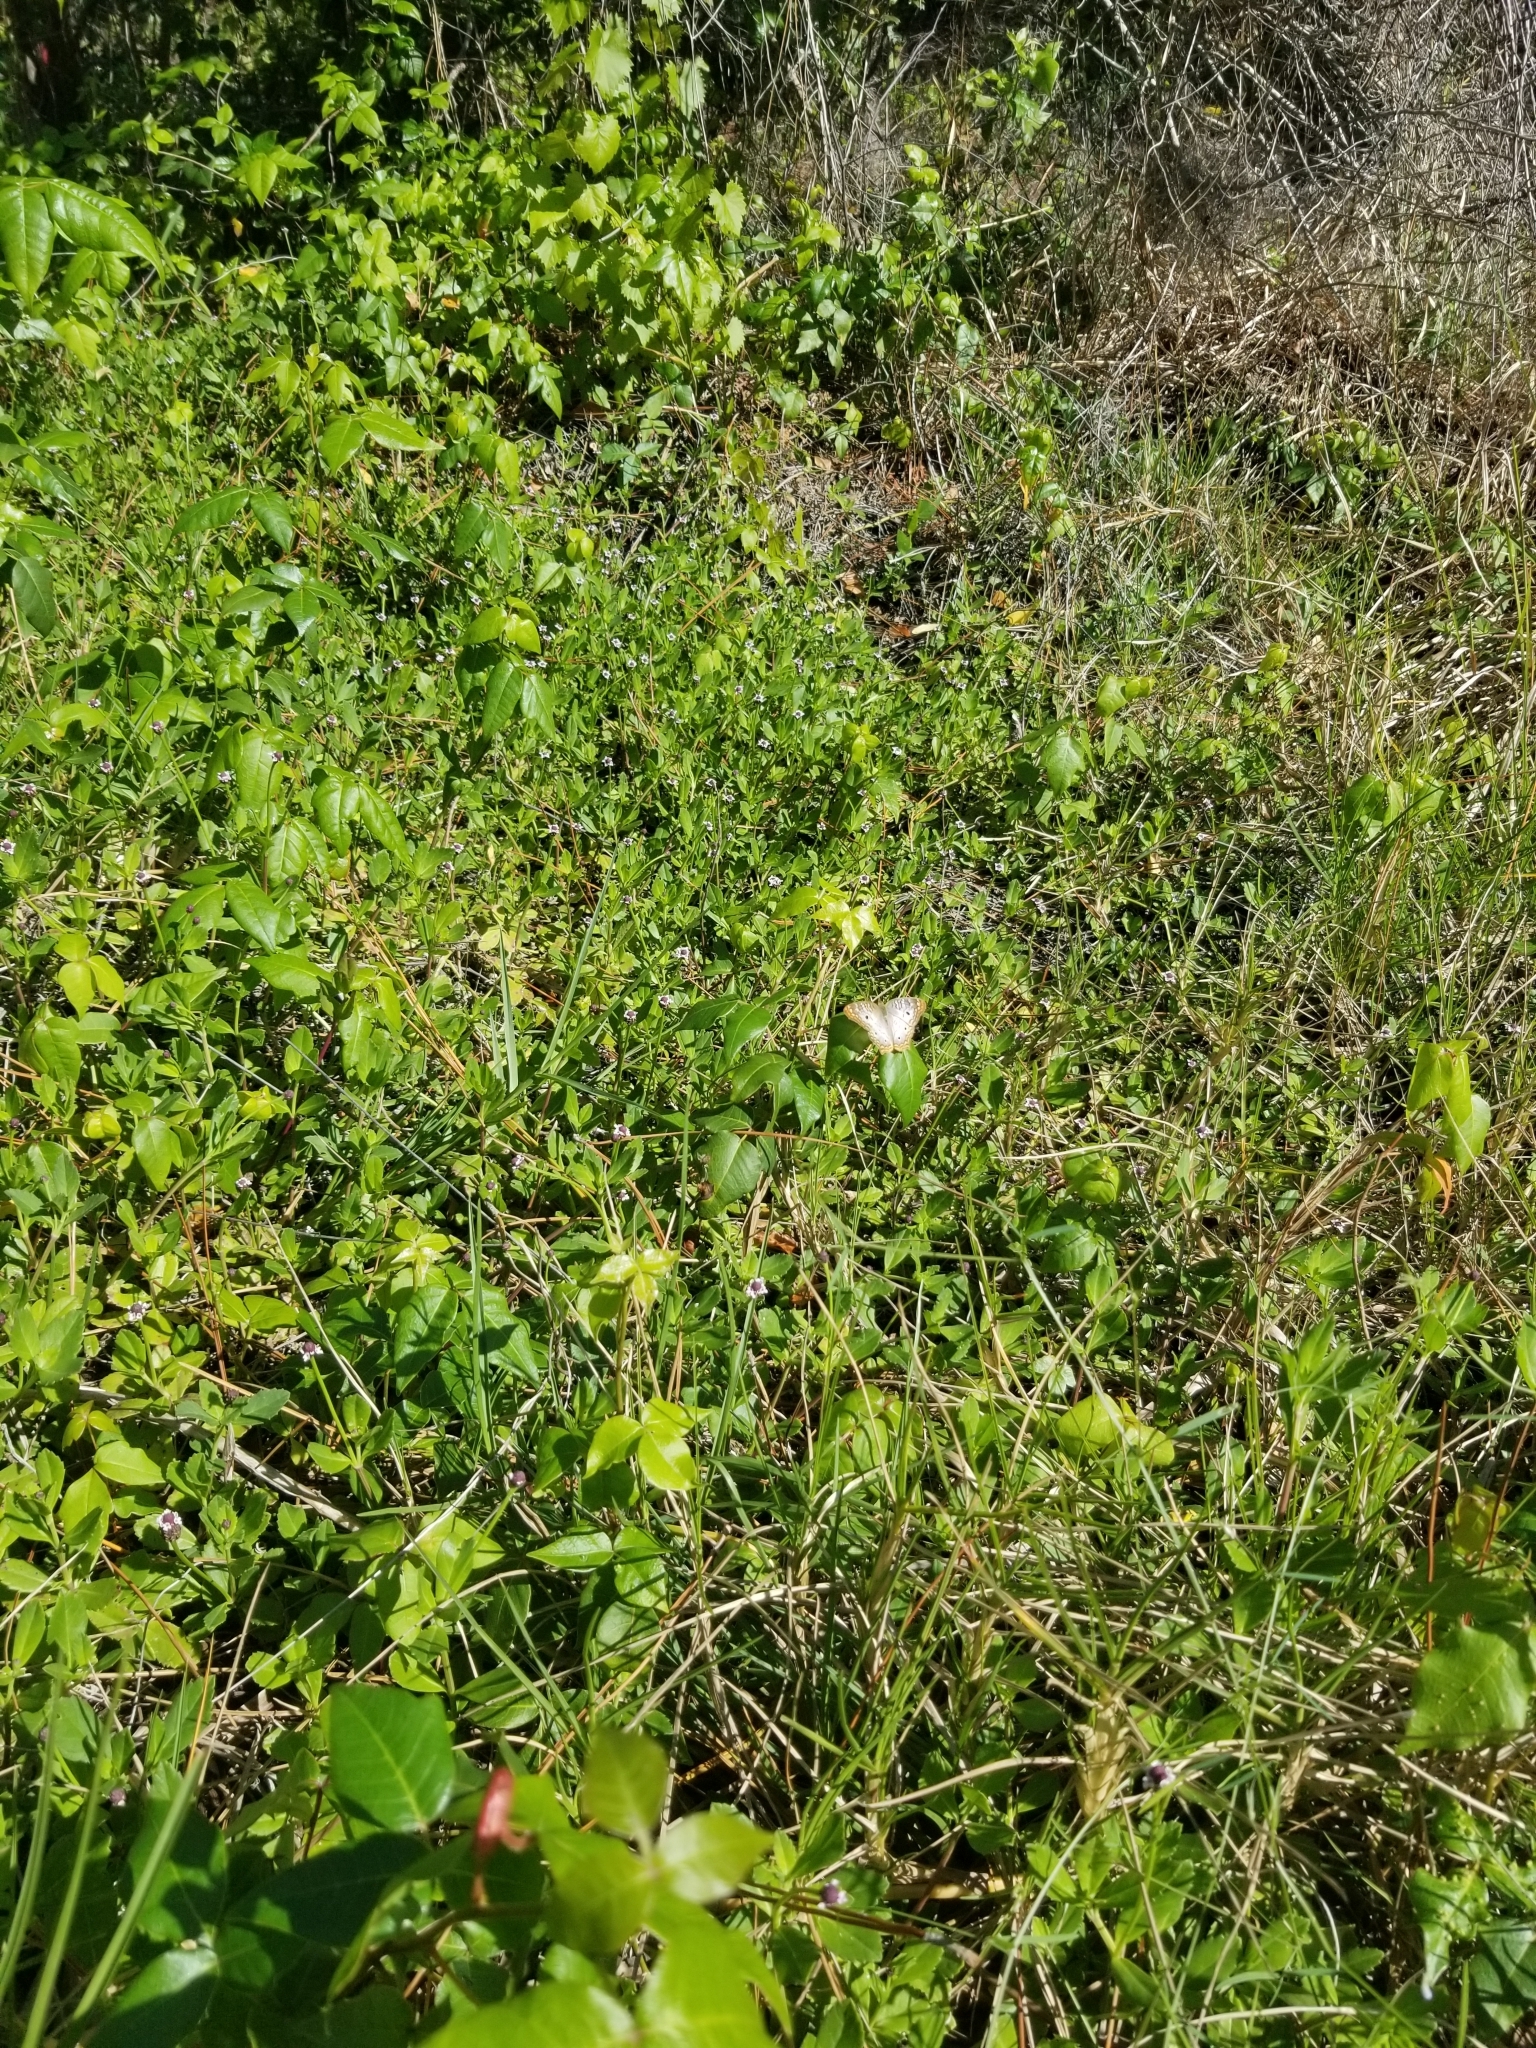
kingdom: Animalia
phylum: Arthropoda
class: Insecta
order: Lepidoptera
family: Nymphalidae
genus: Anartia
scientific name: Anartia jatrophae
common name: White peacock
